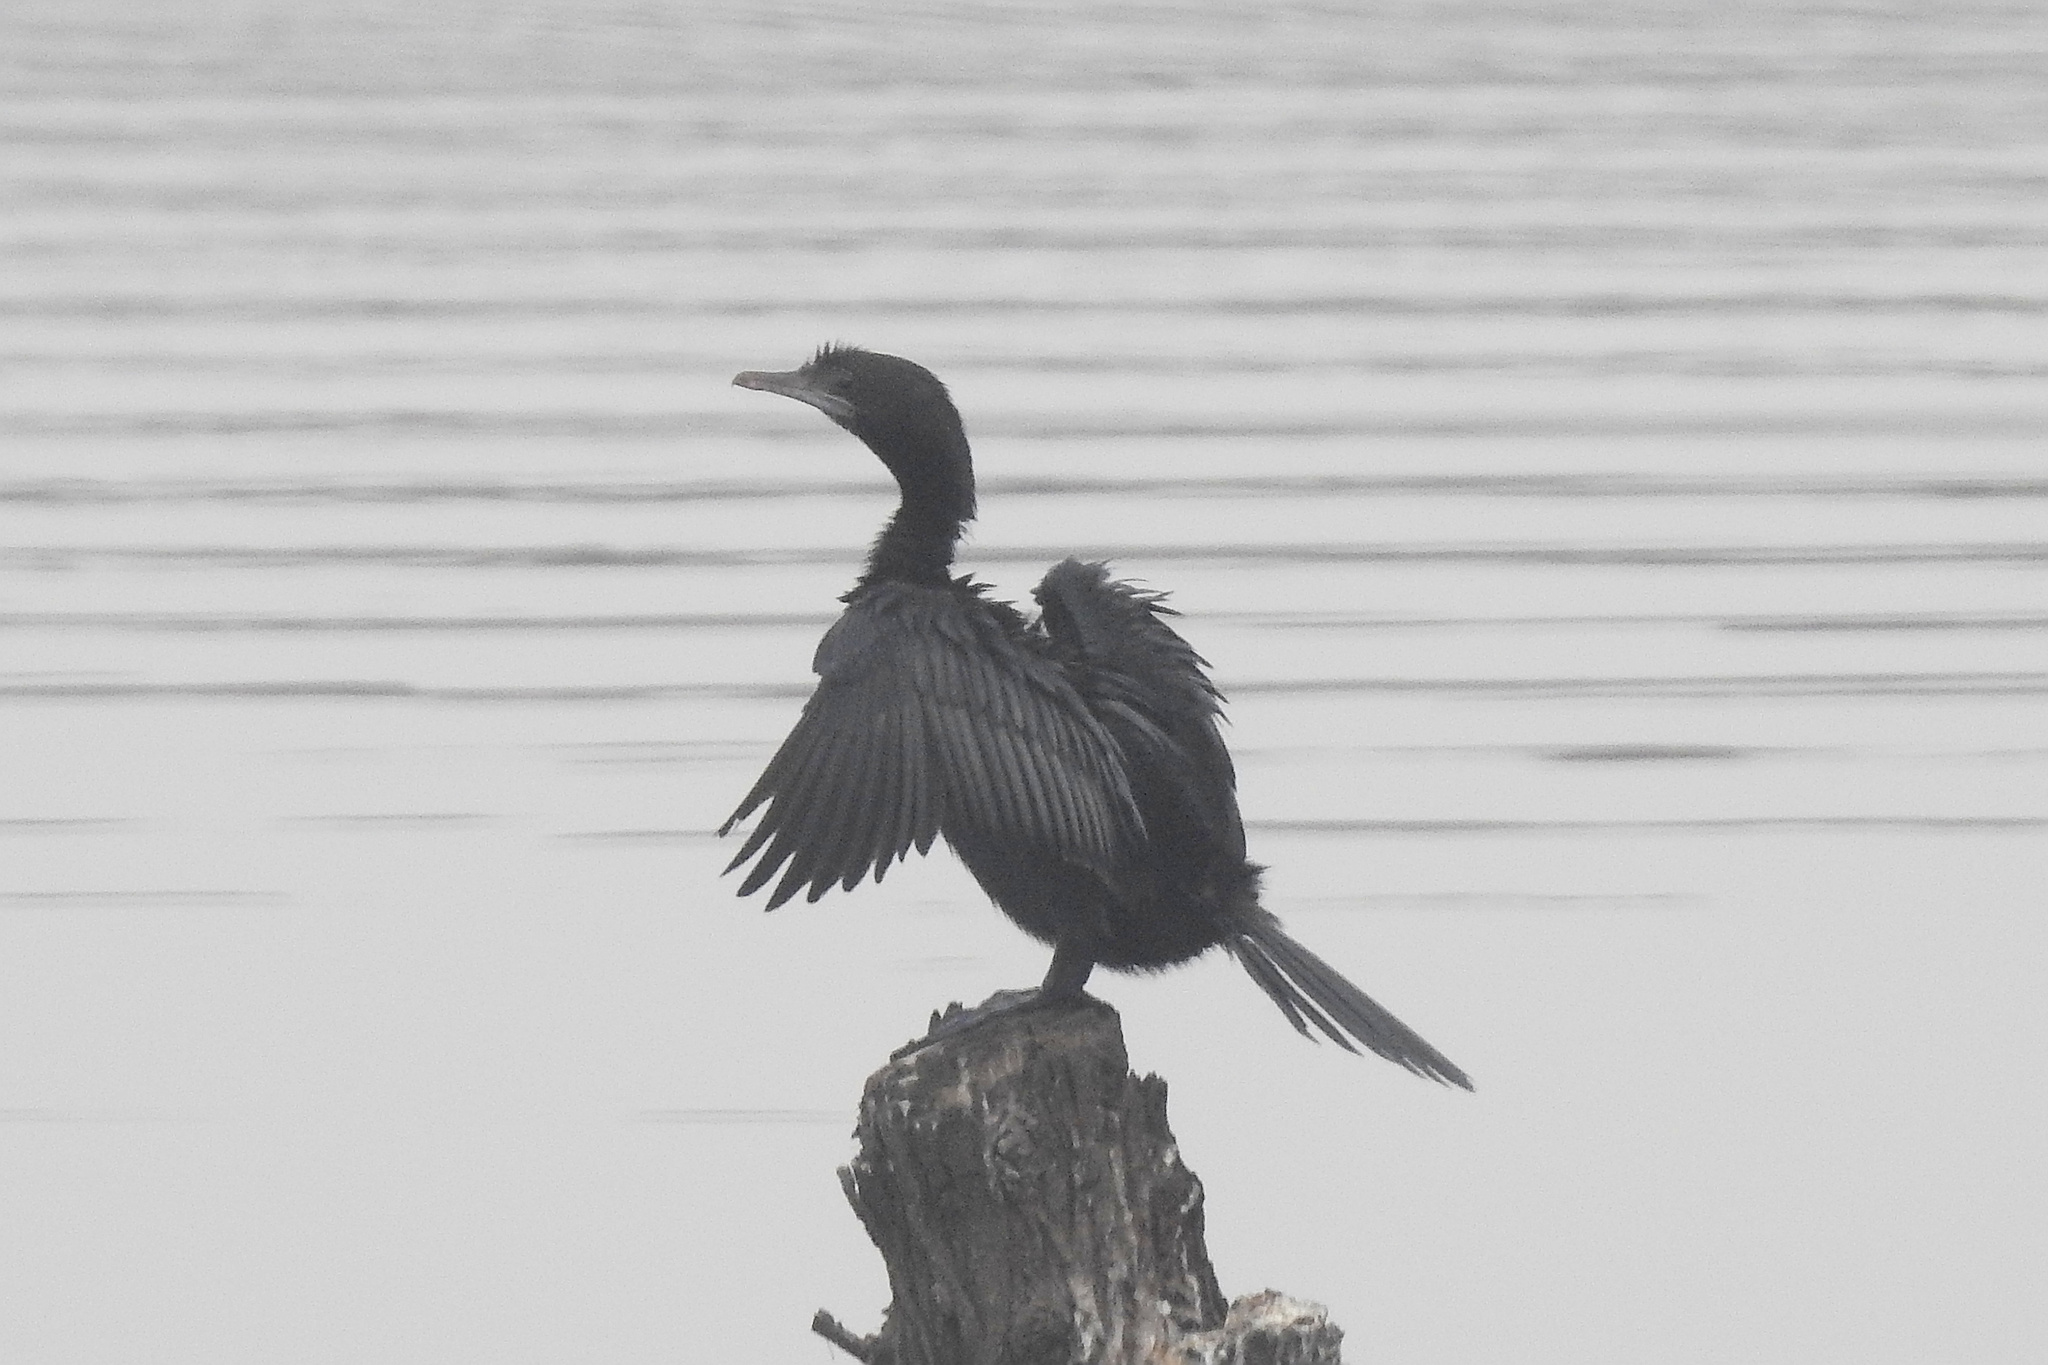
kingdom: Animalia
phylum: Chordata
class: Aves
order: Suliformes
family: Phalacrocoracidae
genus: Microcarbo
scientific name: Microcarbo niger
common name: Little cormorant
